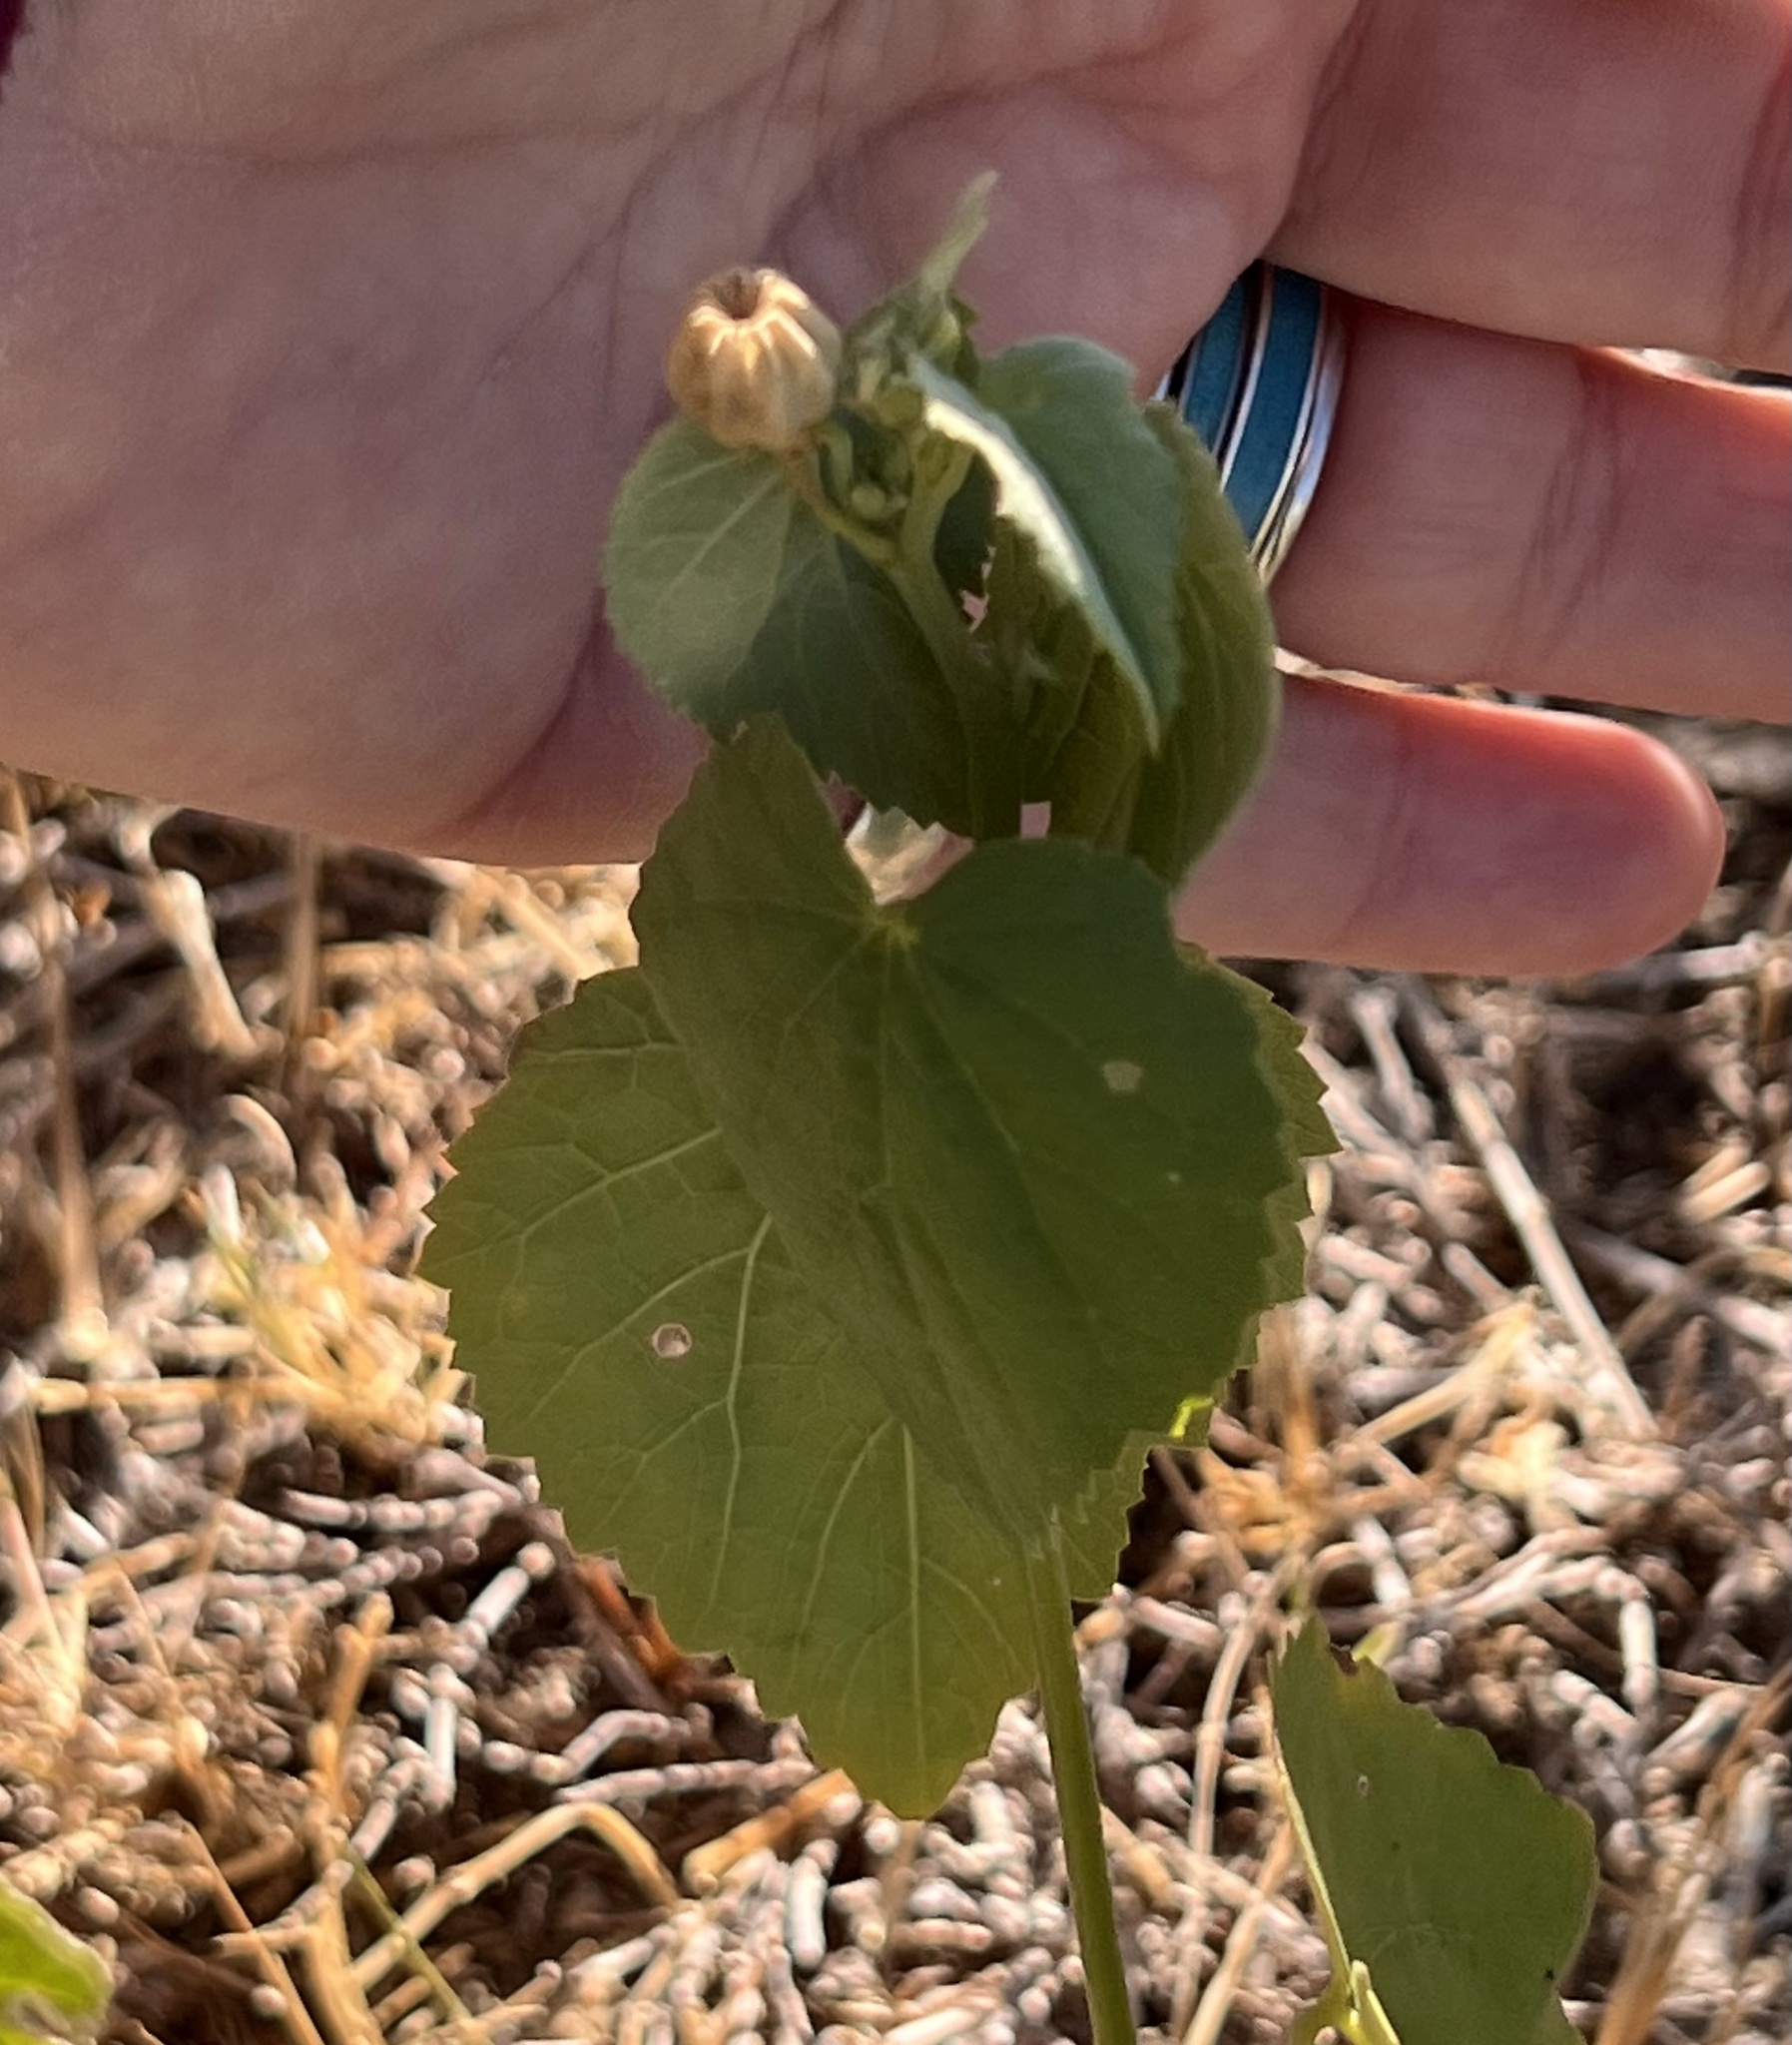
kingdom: Plantae
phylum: Tracheophyta
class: Magnoliopsida
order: Malvales
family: Malvaceae
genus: Abutilon
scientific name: Abutilon fruticosum
